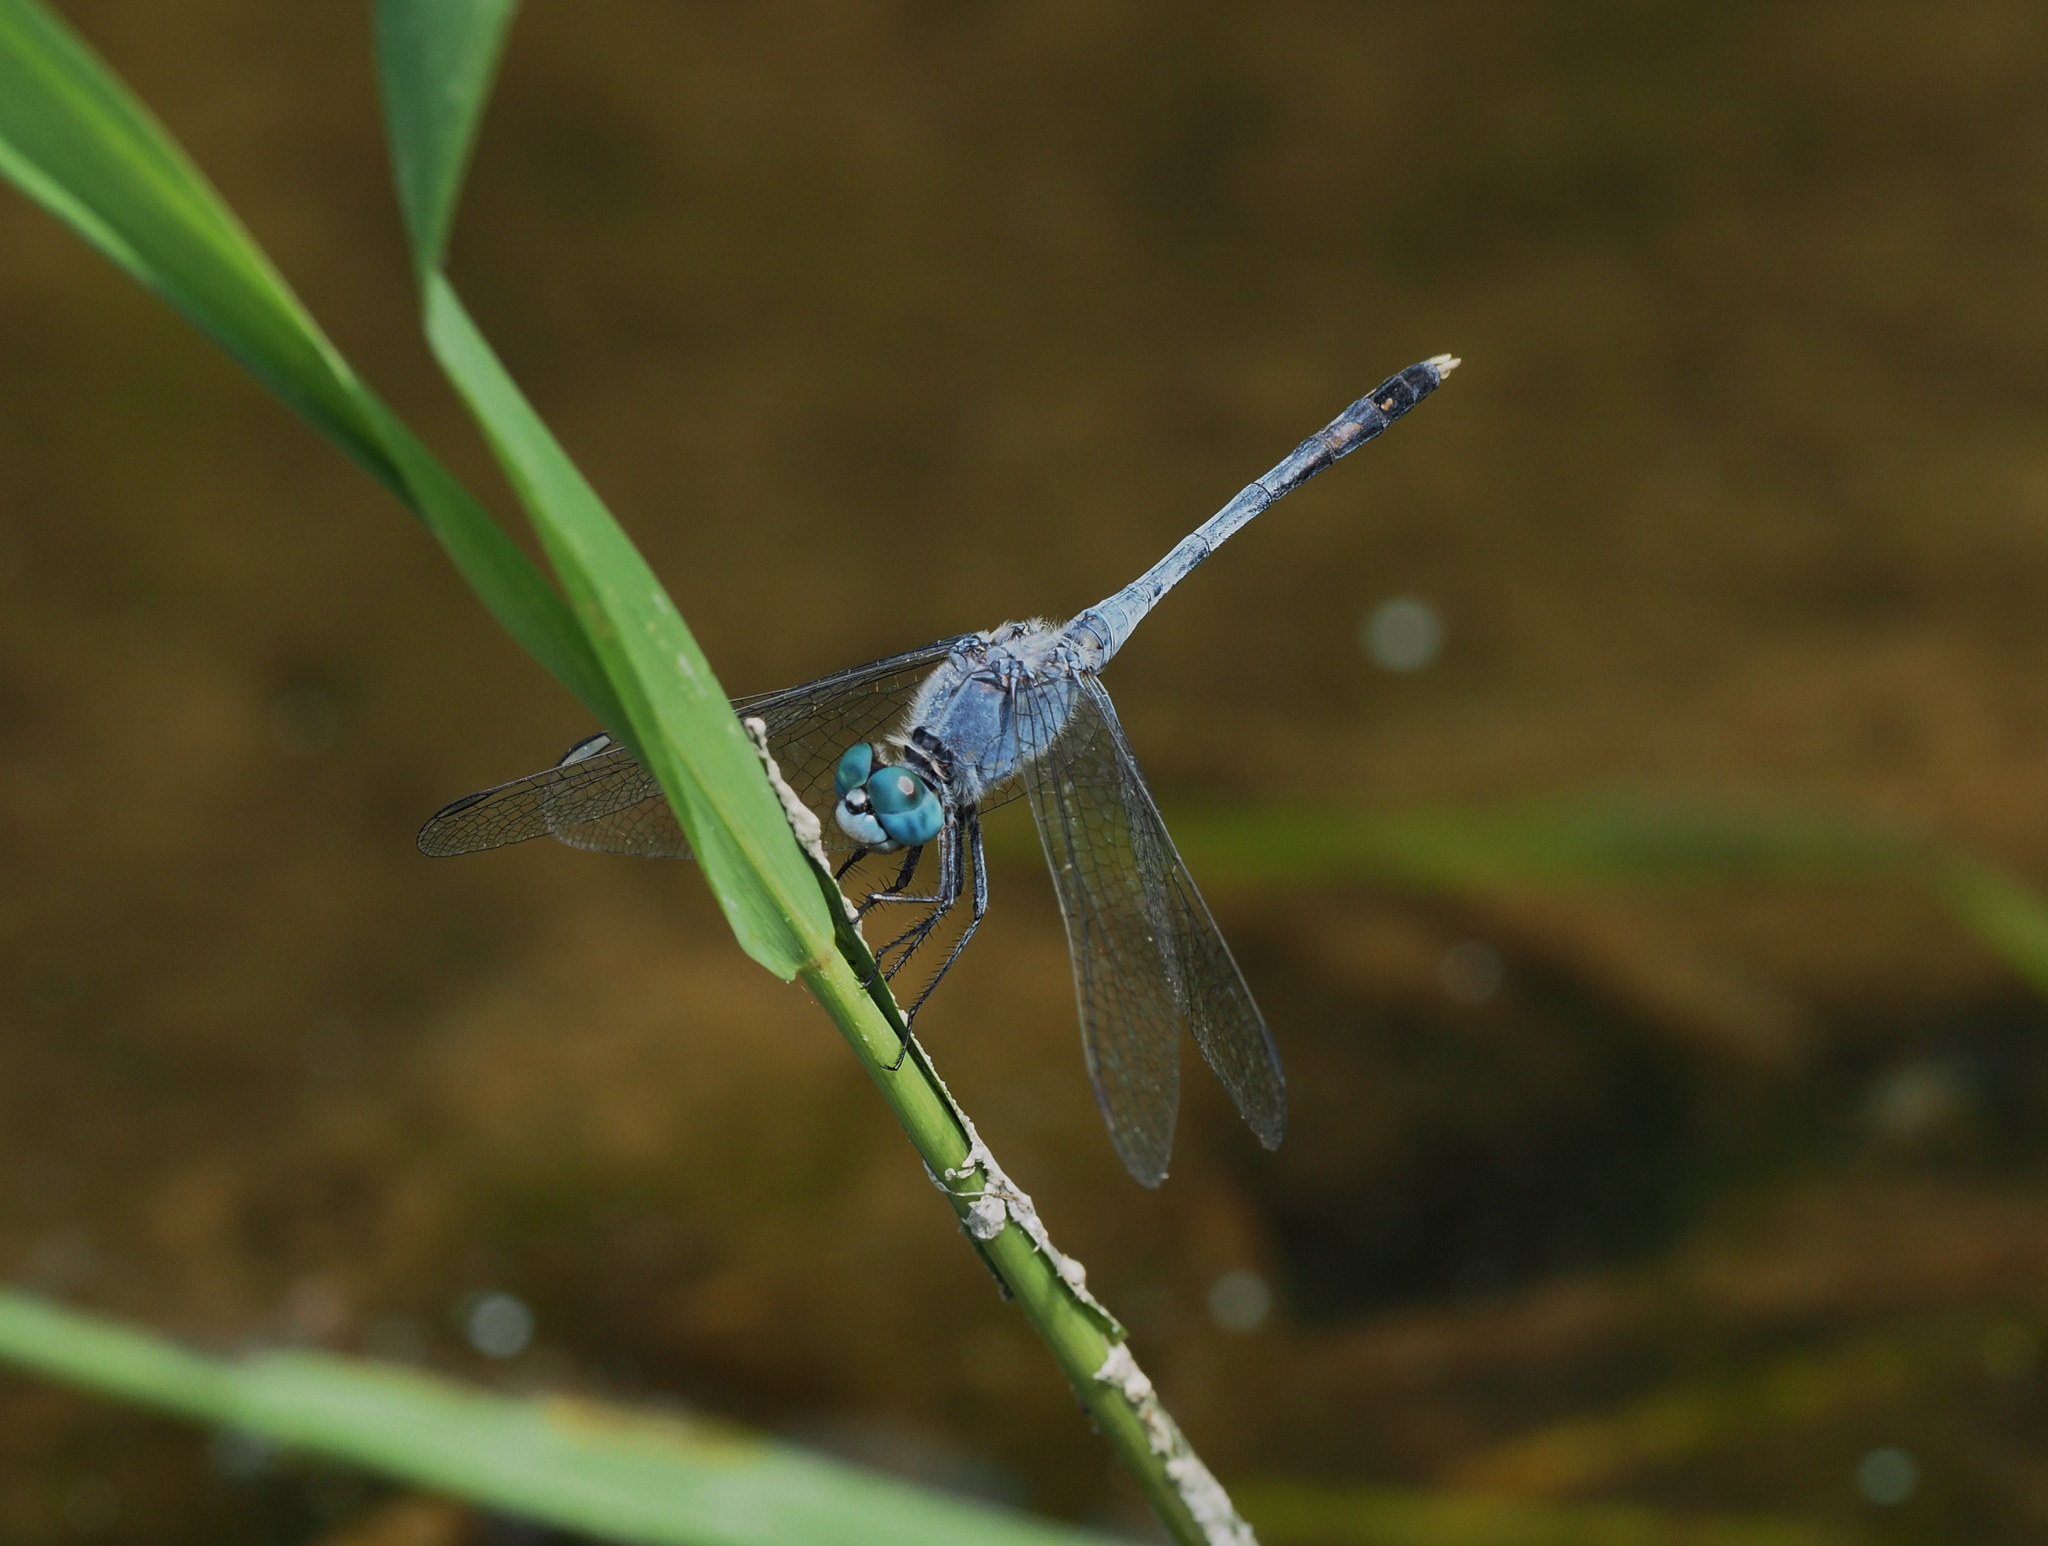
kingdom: Animalia
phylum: Arthropoda
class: Insecta
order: Odonata
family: Libellulidae
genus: Diplacodes
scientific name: Diplacodes trivialis
